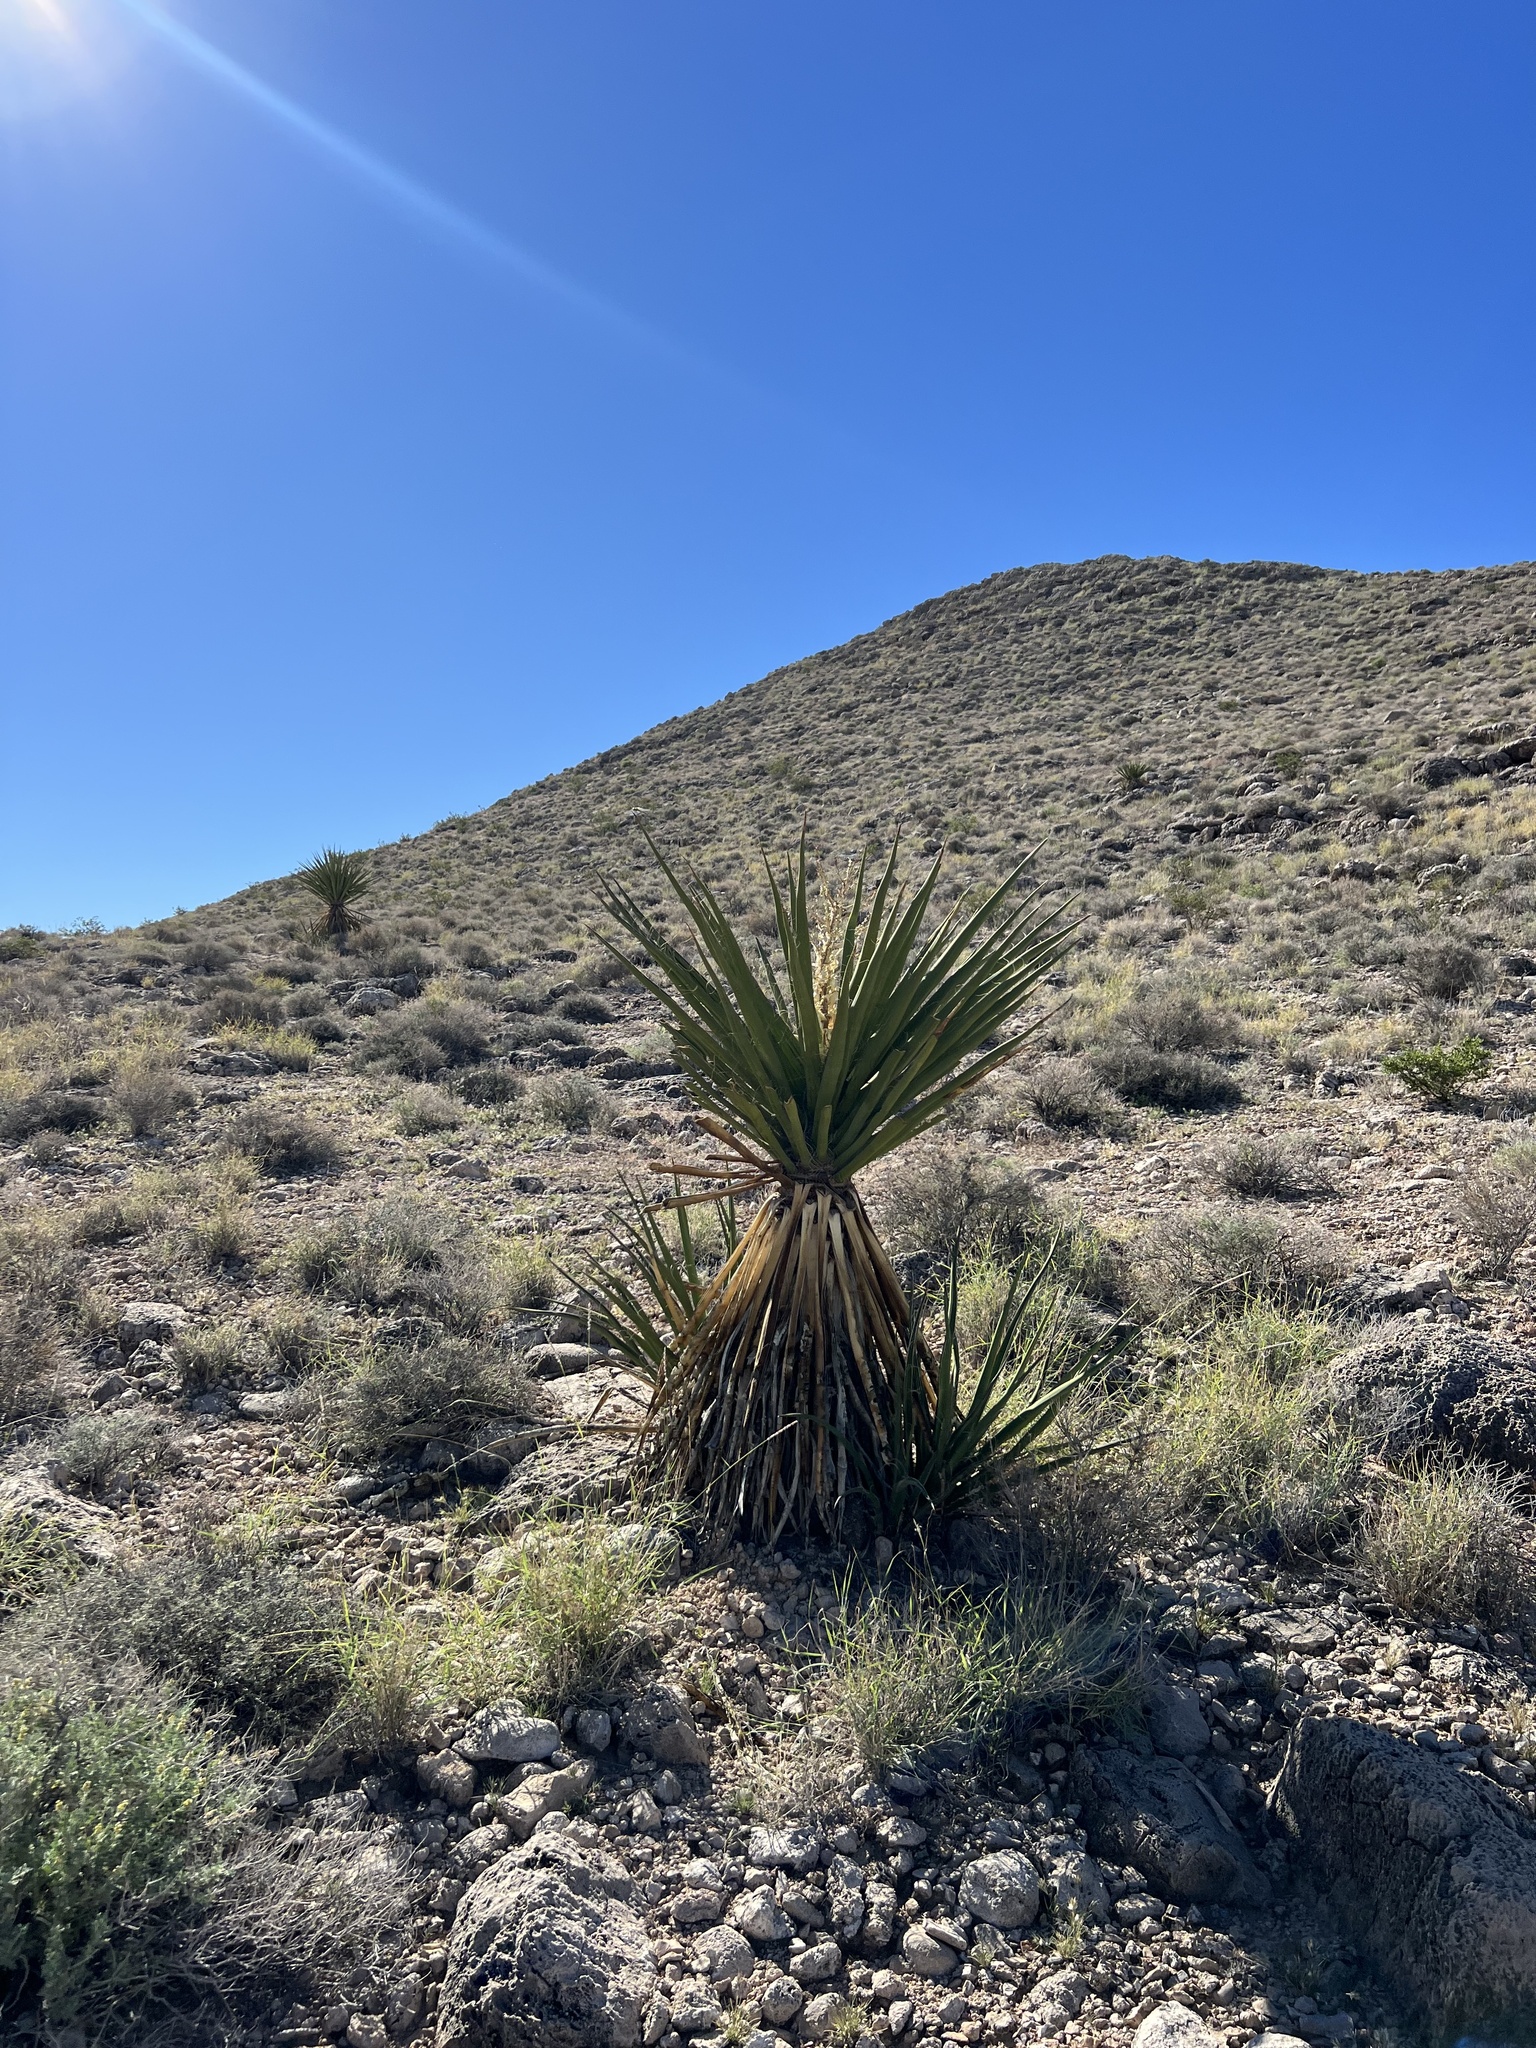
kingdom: Plantae
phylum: Tracheophyta
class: Liliopsida
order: Asparagales
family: Asparagaceae
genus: Yucca
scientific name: Yucca schidigera
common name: Mojave yucca
